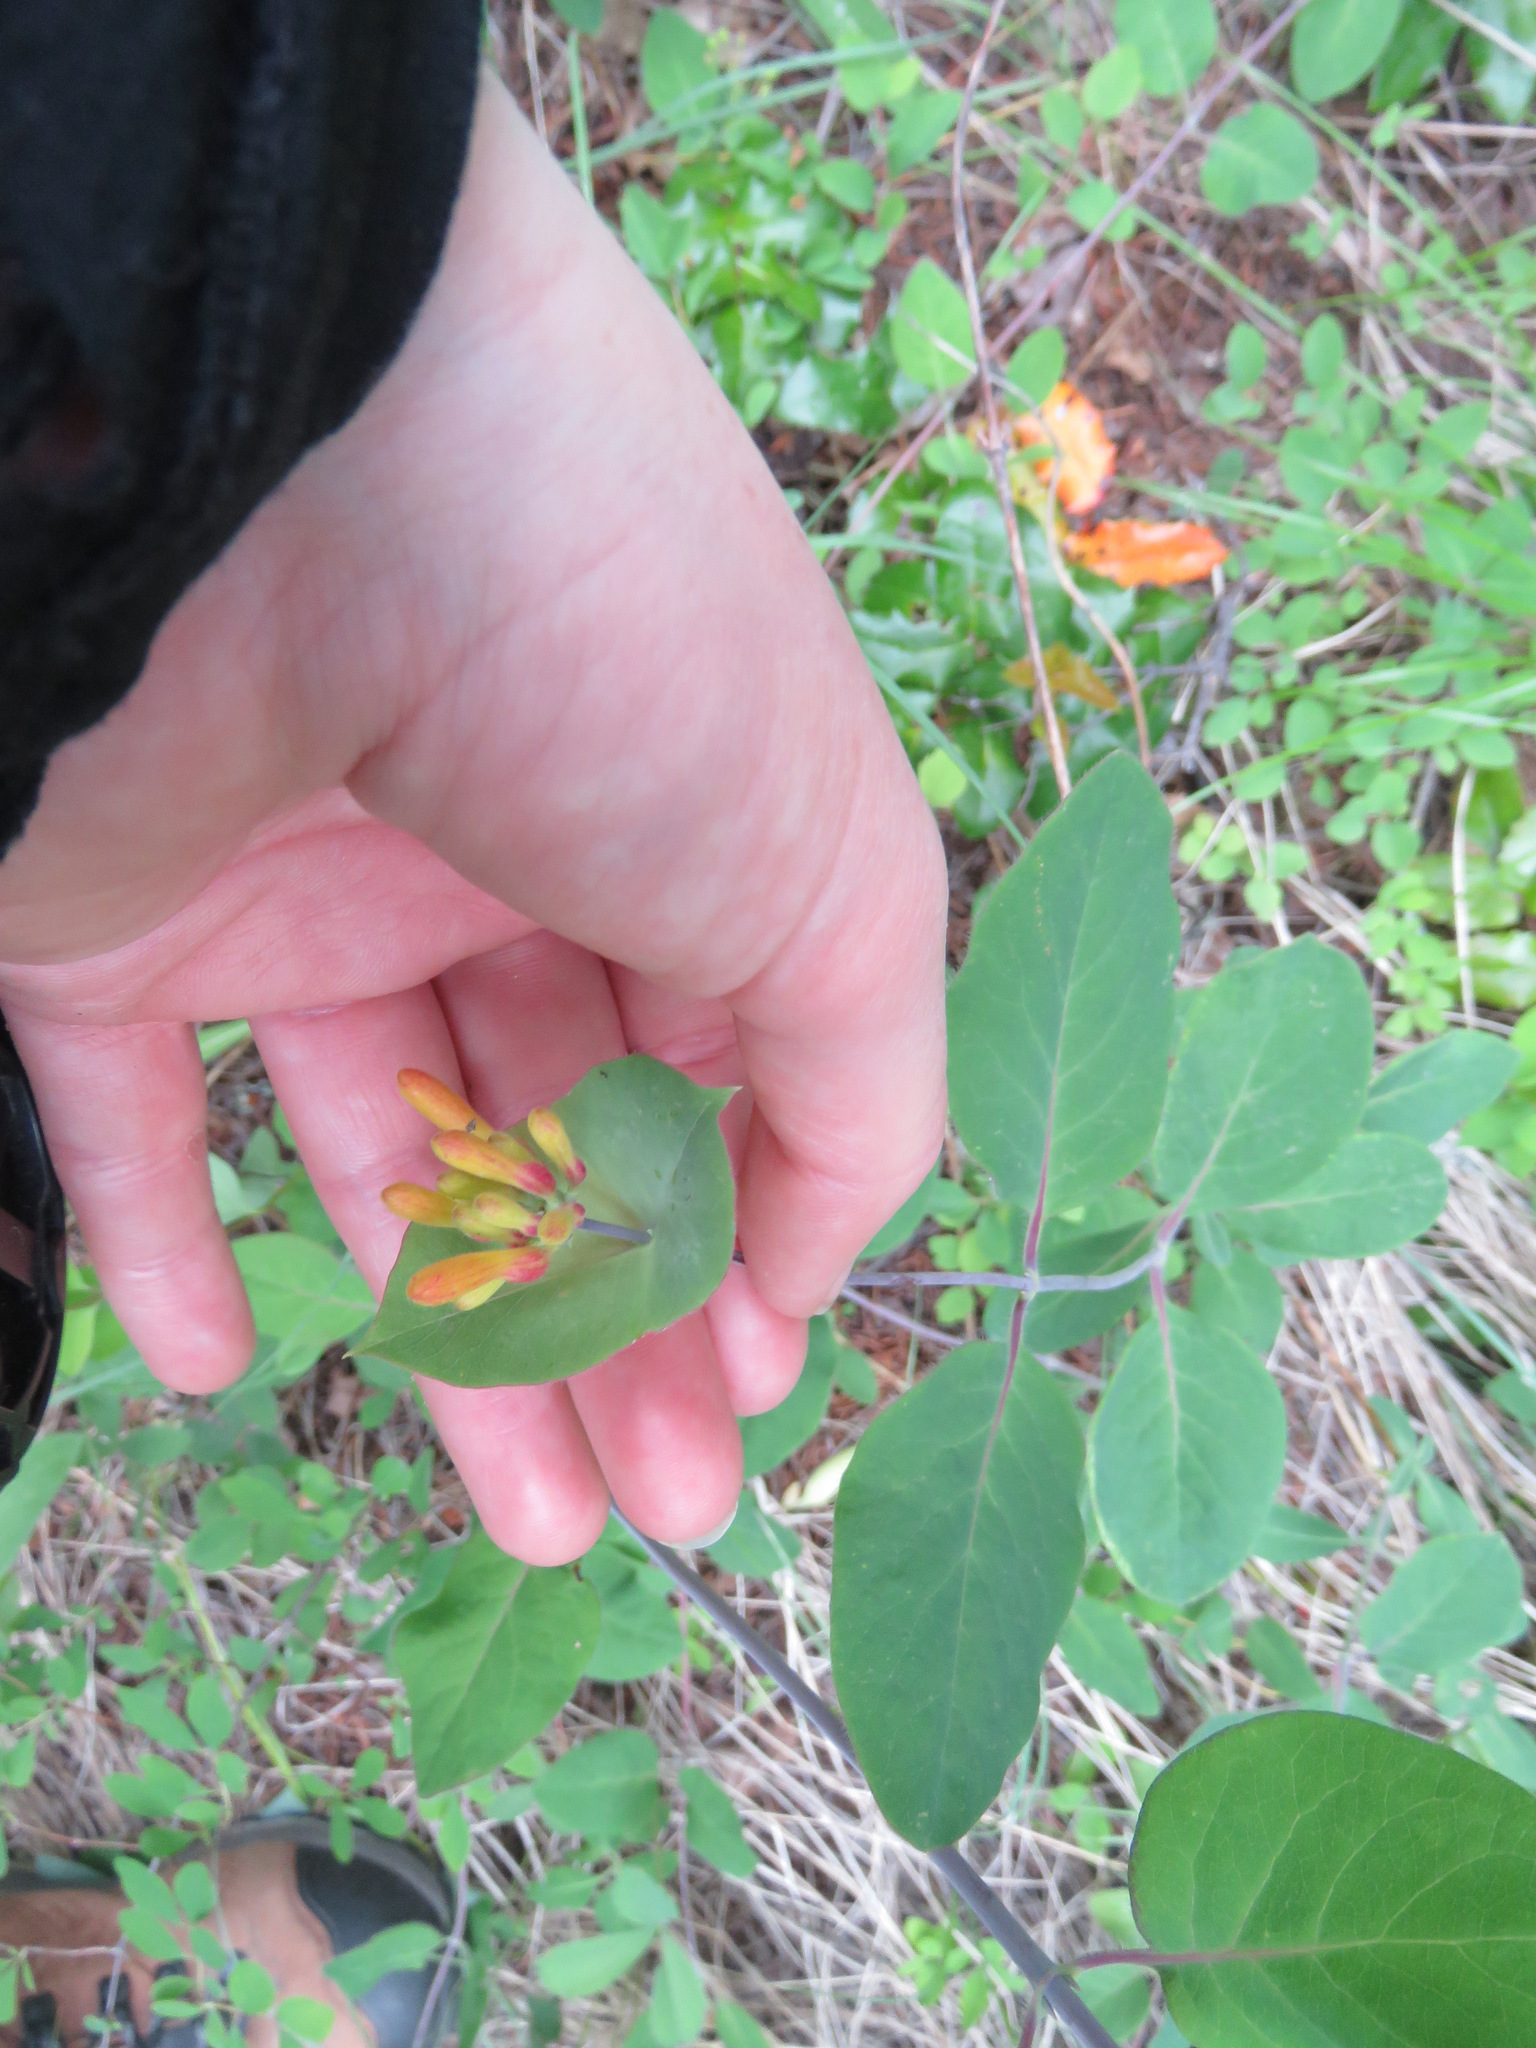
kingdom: Plantae
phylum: Tracheophyta
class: Magnoliopsida
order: Dipsacales
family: Caprifoliaceae
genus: Lonicera
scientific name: Lonicera ciliosa
